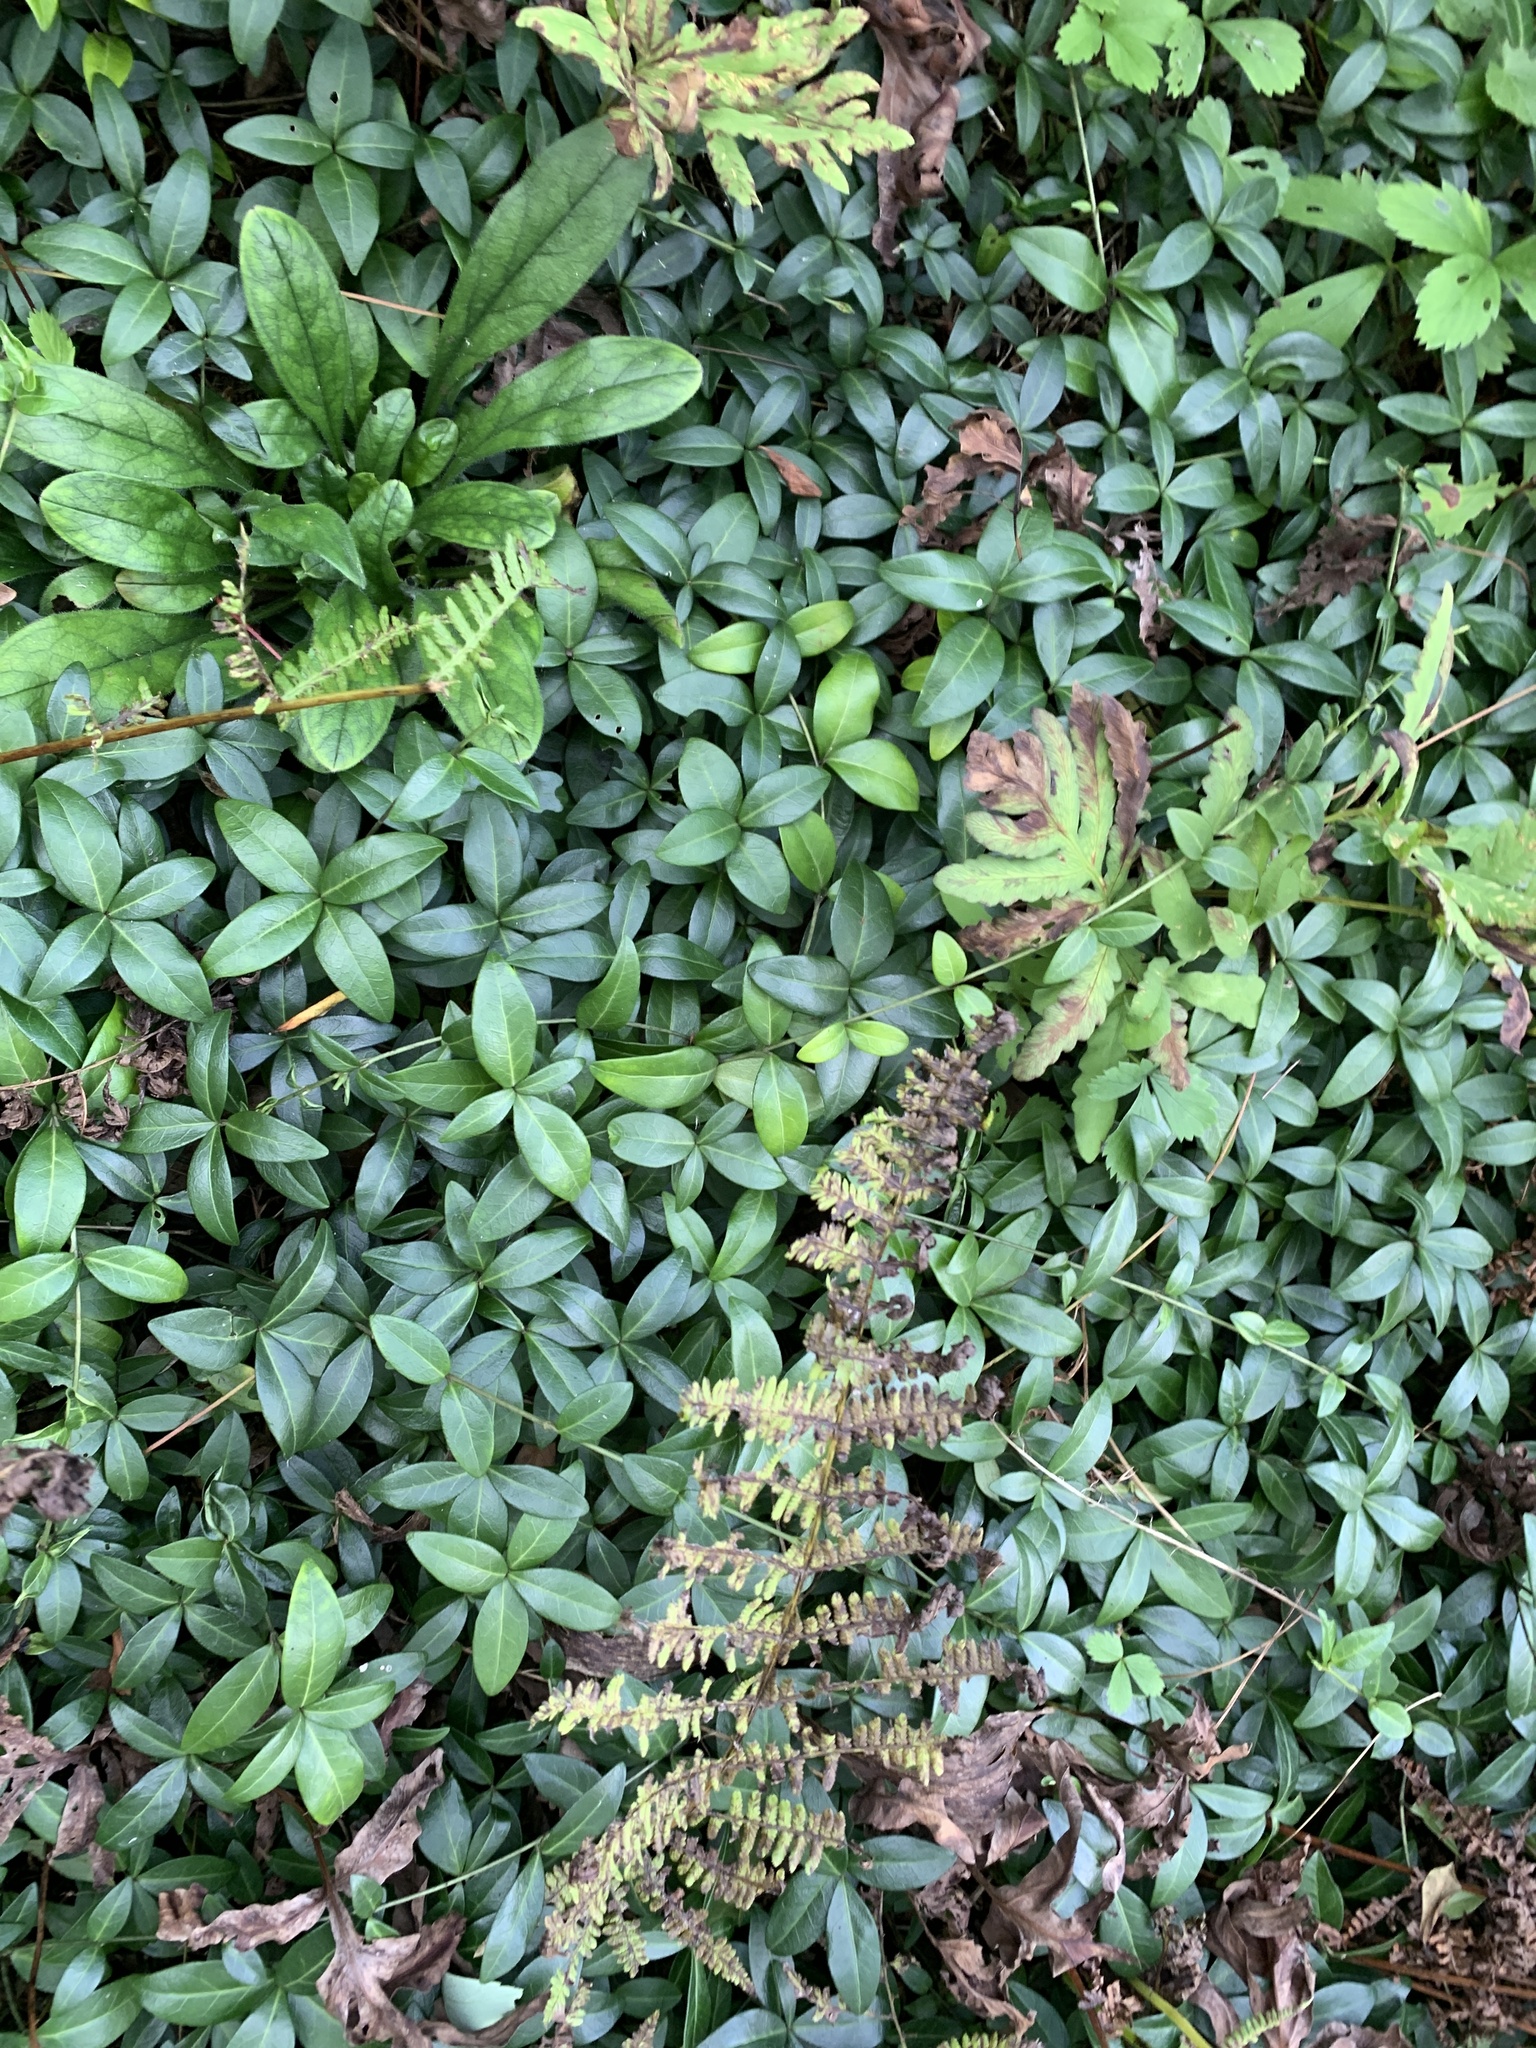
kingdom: Plantae
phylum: Tracheophyta
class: Magnoliopsida
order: Gentianales
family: Apocynaceae
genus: Vinca
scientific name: Vinca minor
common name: Lesser periwinkle
